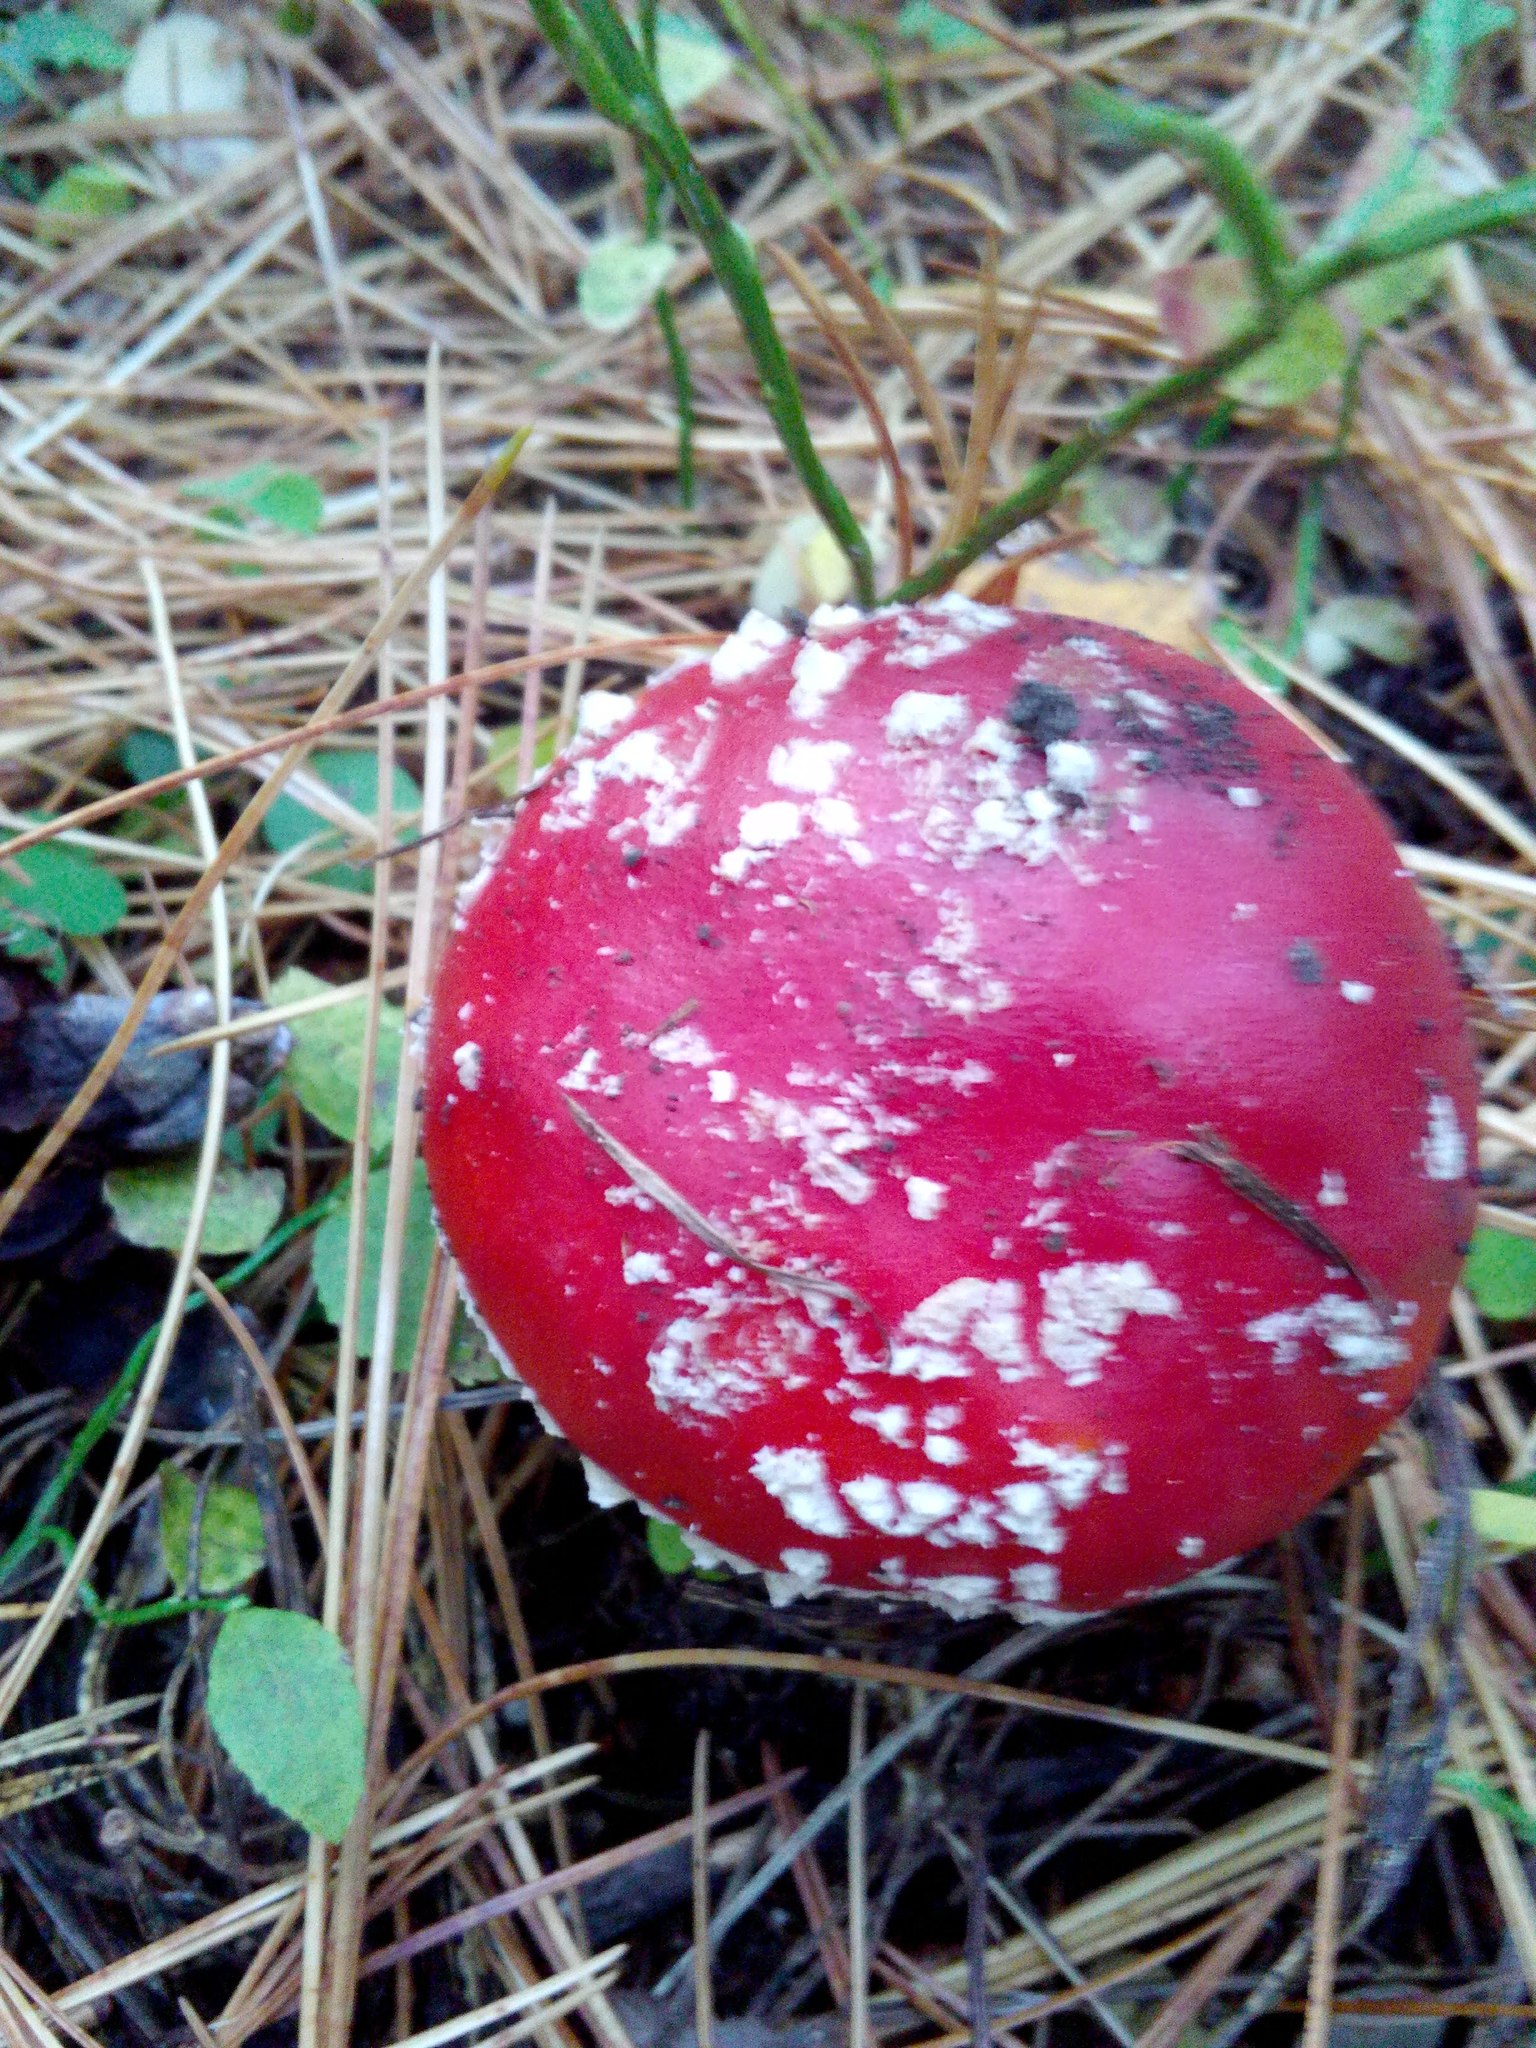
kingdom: Fungi
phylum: Basidiomycota
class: Agaricomycetes
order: Agaricales
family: Amanitaceae
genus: Amanita
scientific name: Amanita muscaria
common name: Fly agaric
